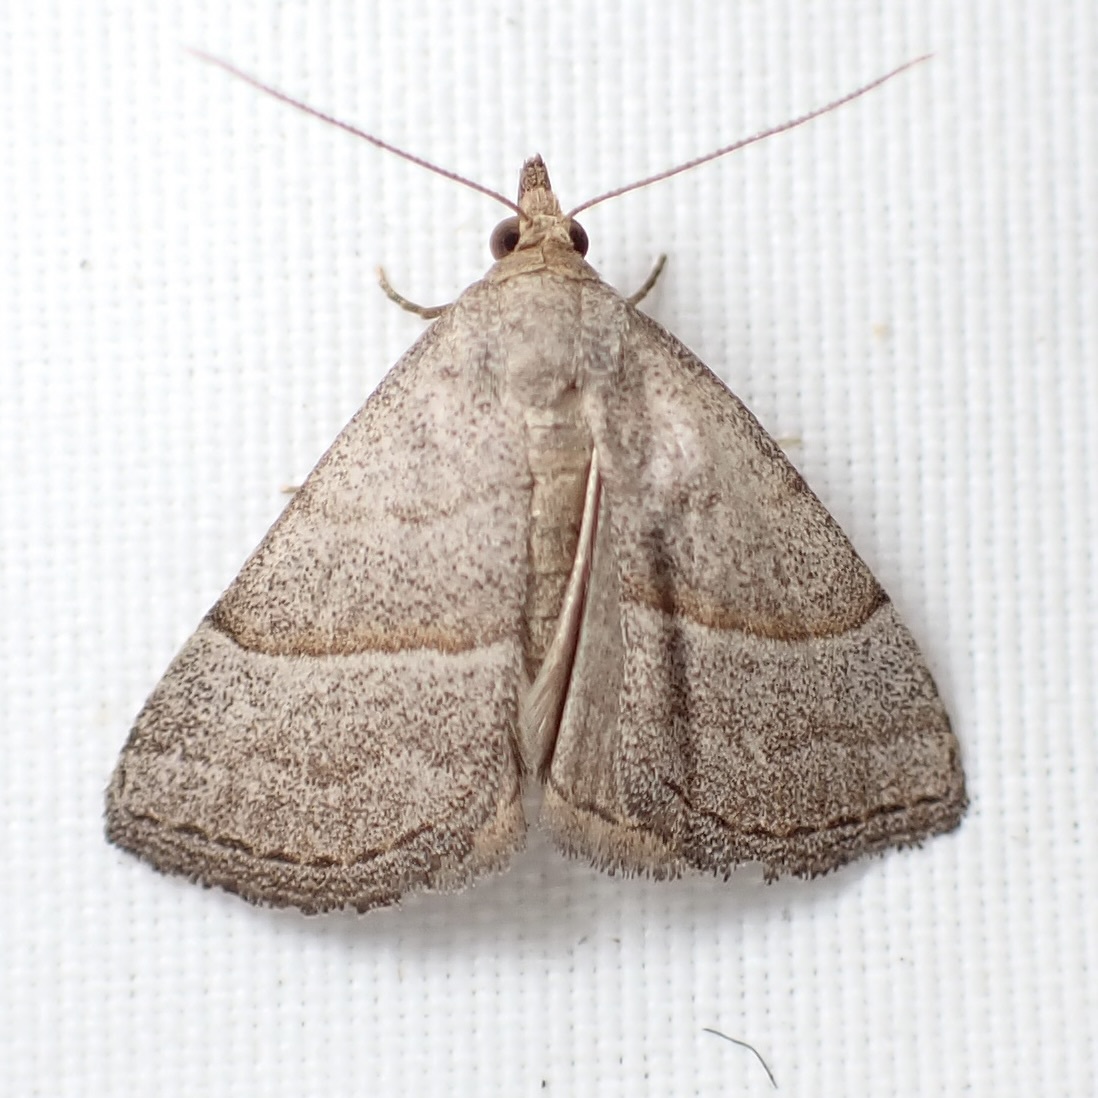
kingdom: Animalia
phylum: Arthropoda
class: Insecta
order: Lepidoptera
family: Erebidae
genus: Zelicodes
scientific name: Zelicodes linearis
